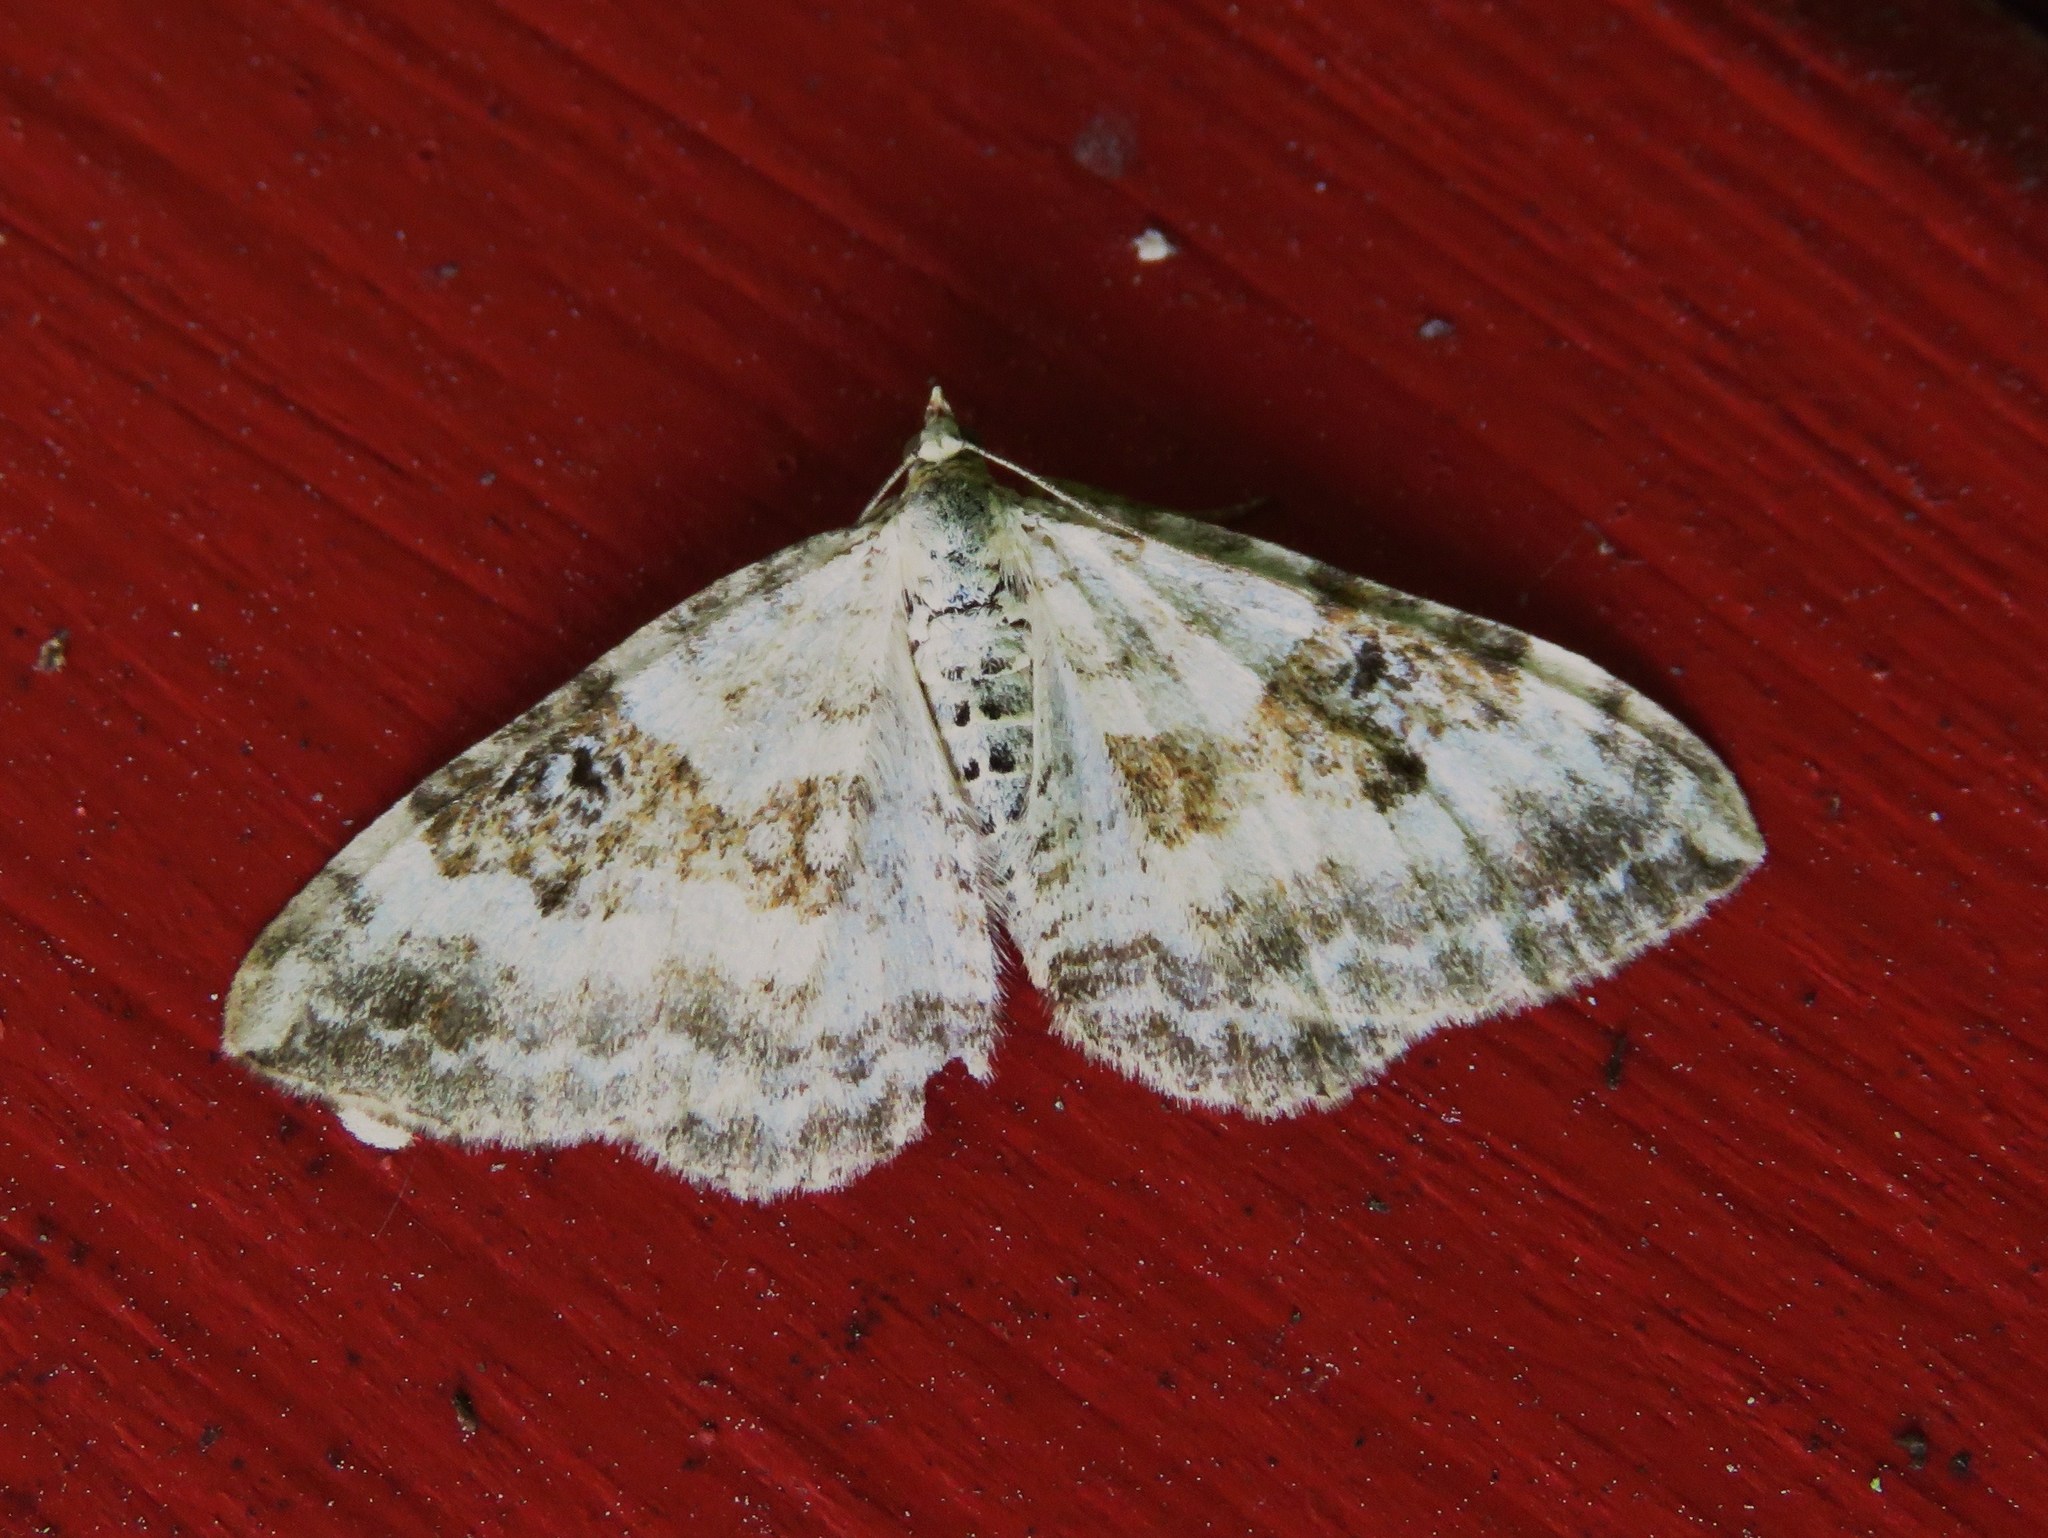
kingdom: Animalia
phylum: Arthropoda
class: Insecta
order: Lepidoptera
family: Geometridae
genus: Xanthorhoe
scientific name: Xanthorhoe montanata
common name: Silver-ground carpet
